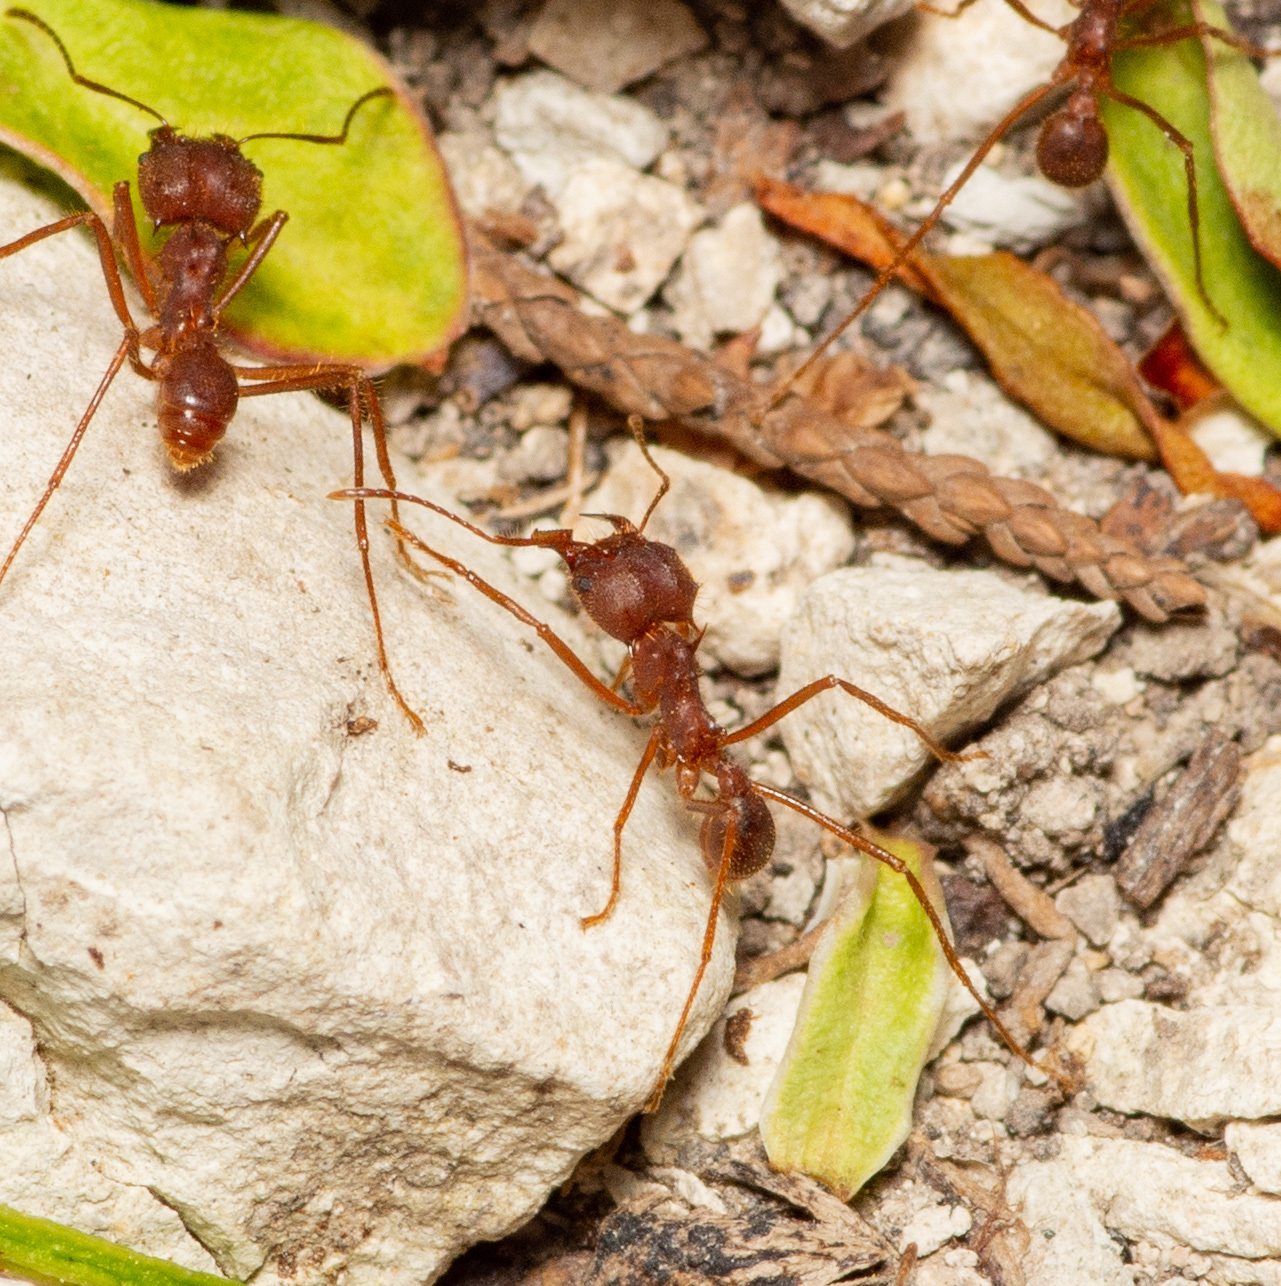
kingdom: Animalia
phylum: Arthropoda
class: Insecta
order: Hymenoptera
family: Formicidae
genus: Atta
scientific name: Atta texana
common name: Texas leafcutting ant
